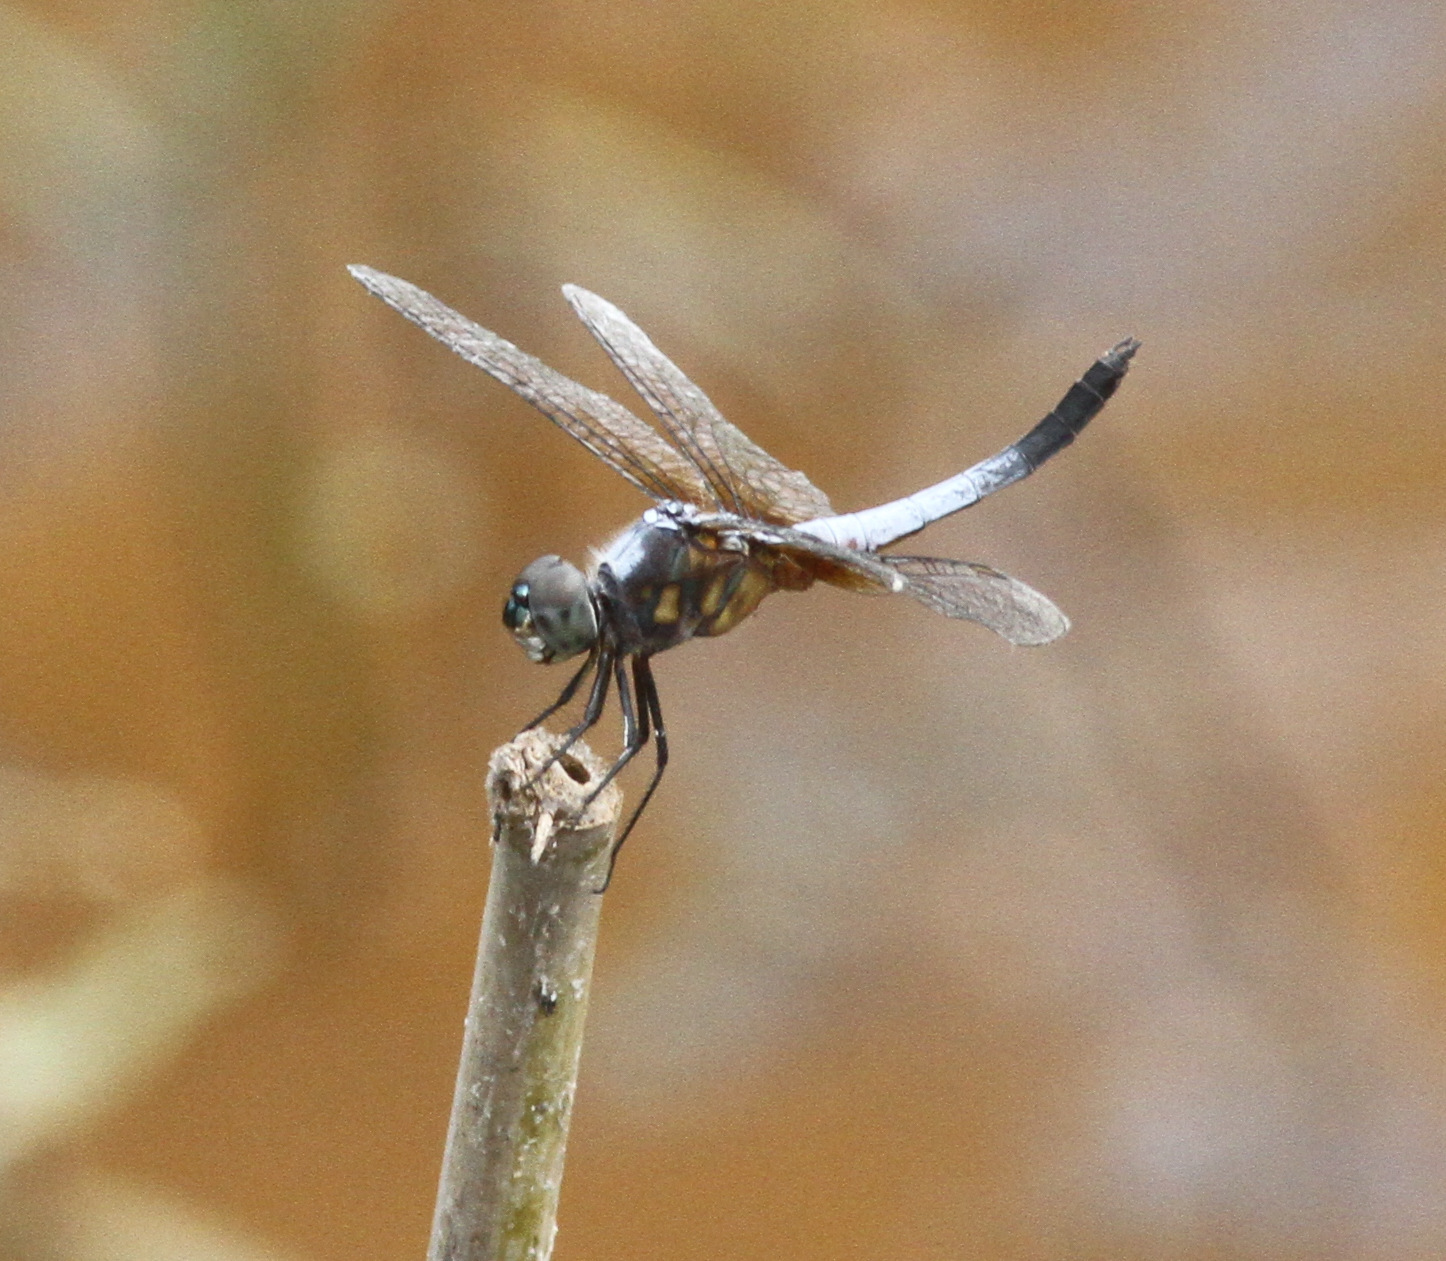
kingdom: Animalia
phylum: Arthropoda
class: Insecta
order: Odonata
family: Libellulidae
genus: Brachydiplax
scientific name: Brachydiplax chalybea
